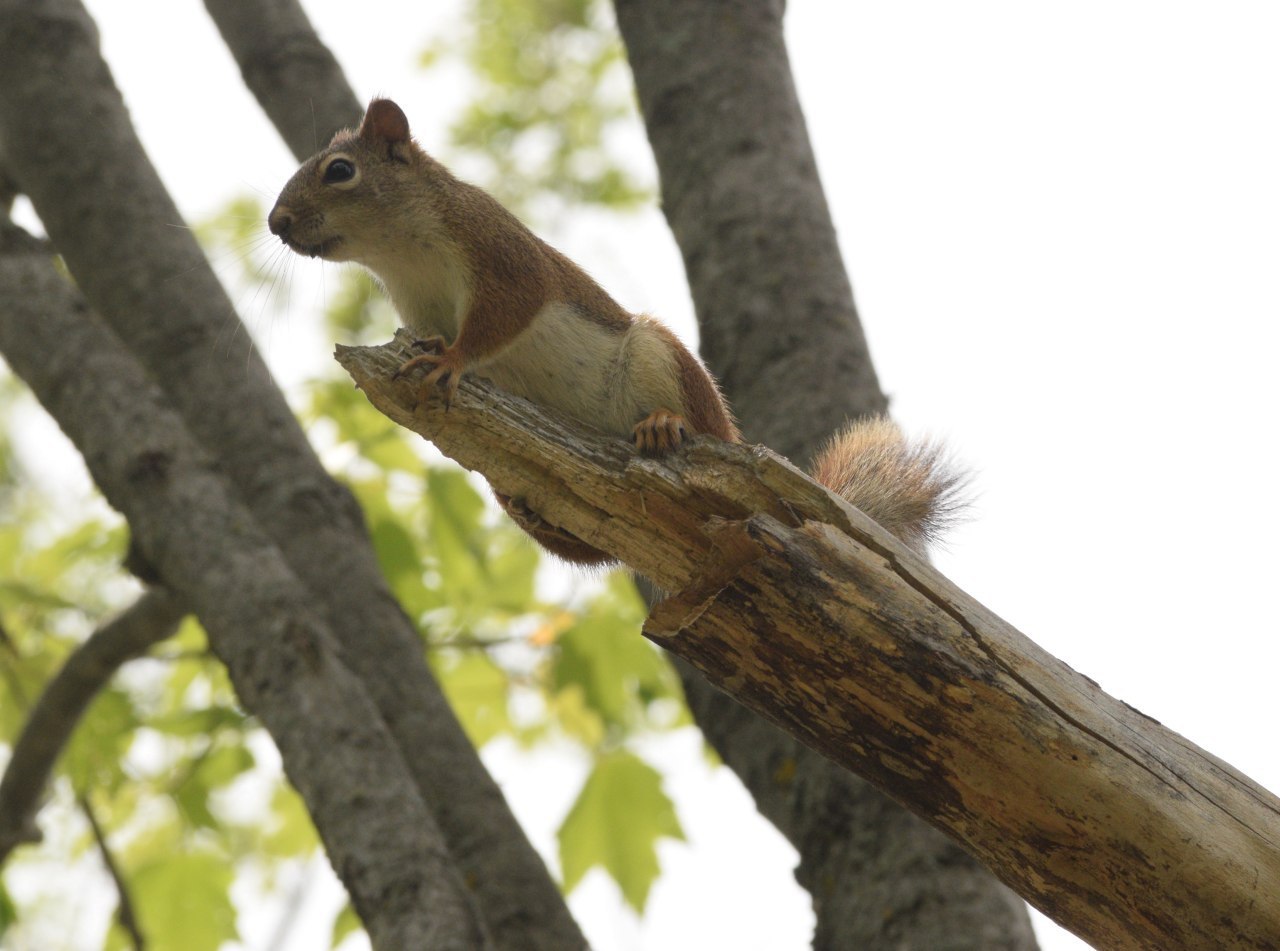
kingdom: Animalia
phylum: Chordata
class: Mammalia
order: Rodentia
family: Sciuridae
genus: Tamiasciurus
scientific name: Tamiasciurus hudsonicus
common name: Red squirrel
